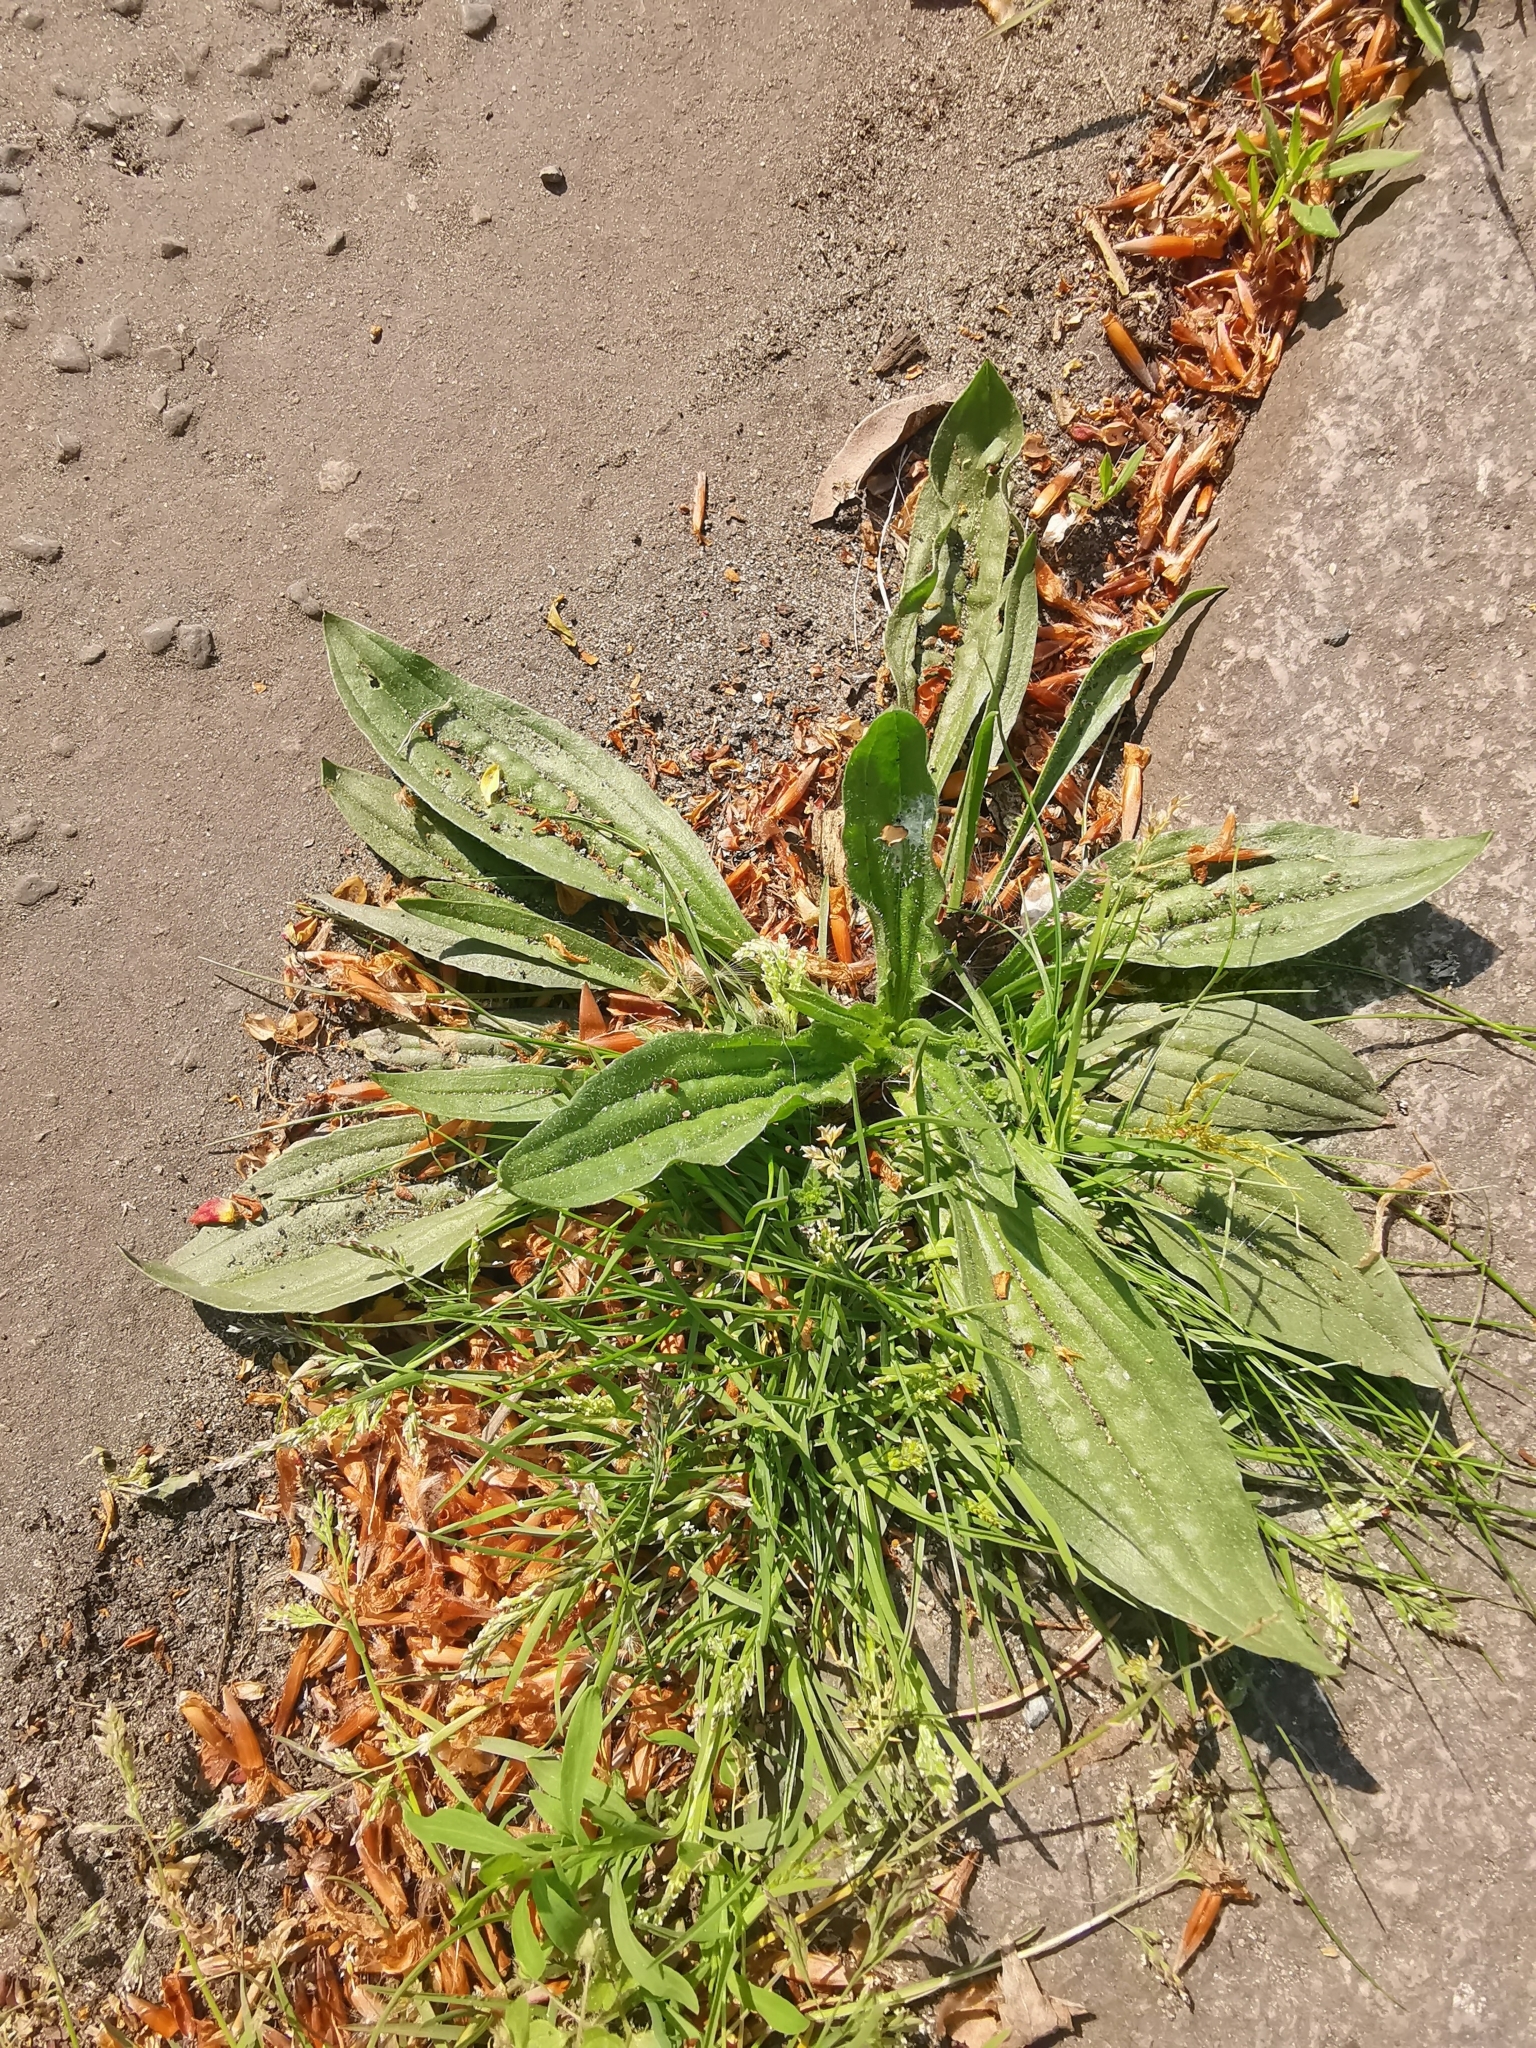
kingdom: Plantae
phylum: Tracheophyta
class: Magnoliopsida
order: Lamiales
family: Plantaginaceae
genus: Plantago
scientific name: Plantago lanceolata
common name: Ribwort plantain
